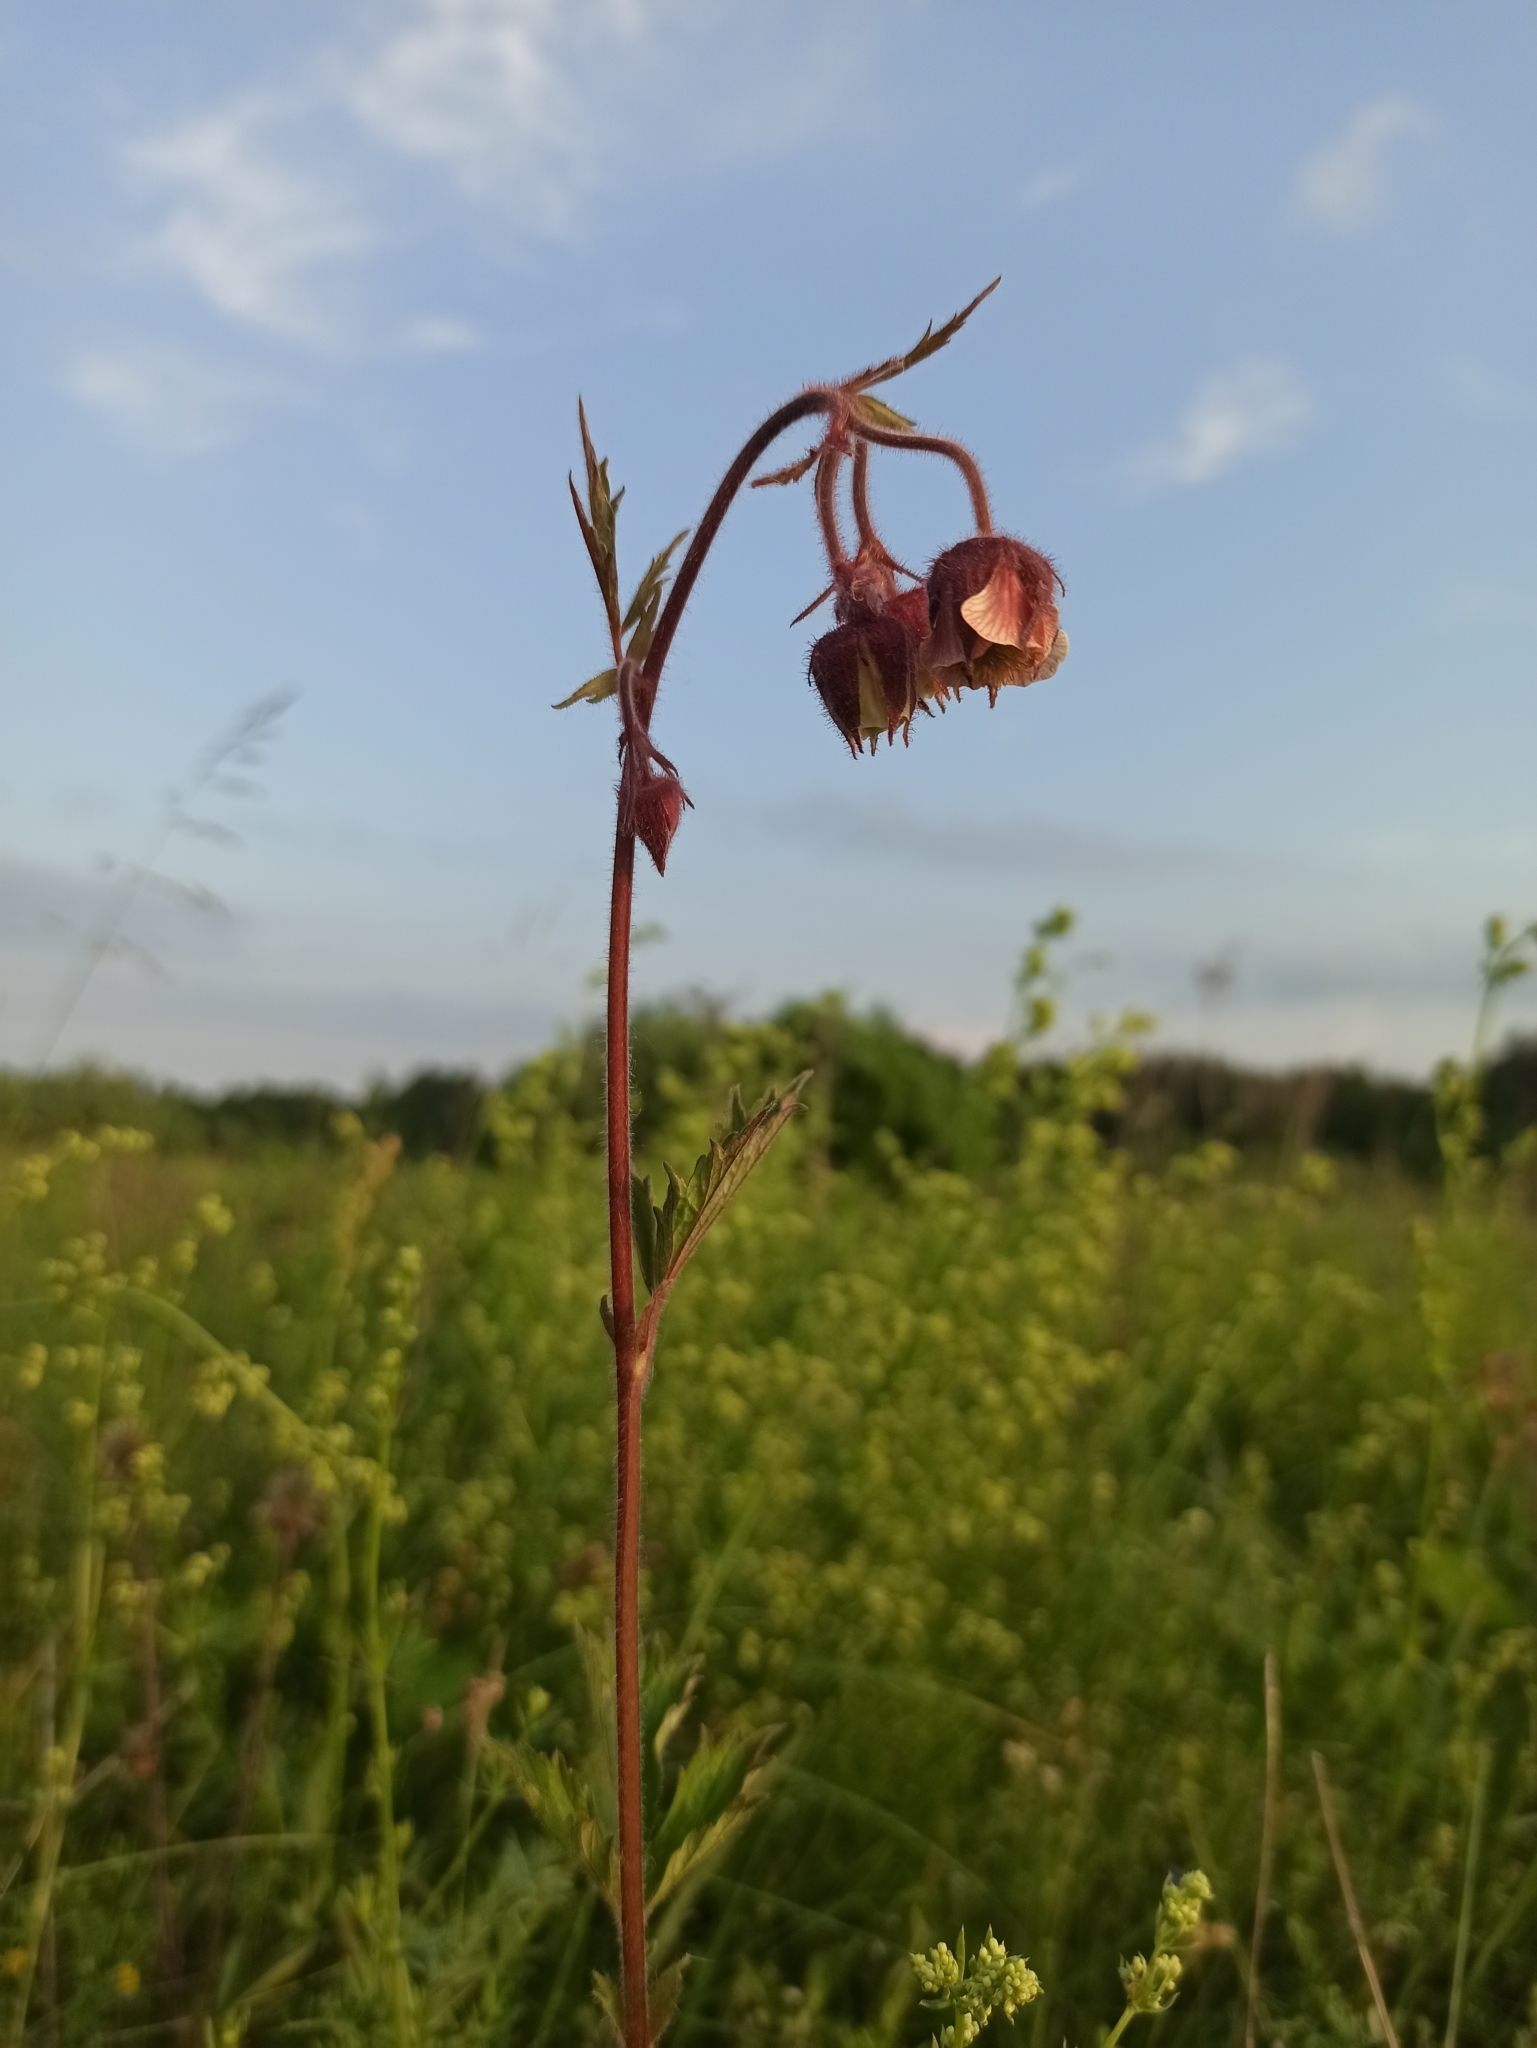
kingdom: Plantae
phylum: Tracheophyta
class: Magnoliopsida
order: Rosales
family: Rosaceae
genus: Geum
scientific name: Geum rivale
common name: Water avens
